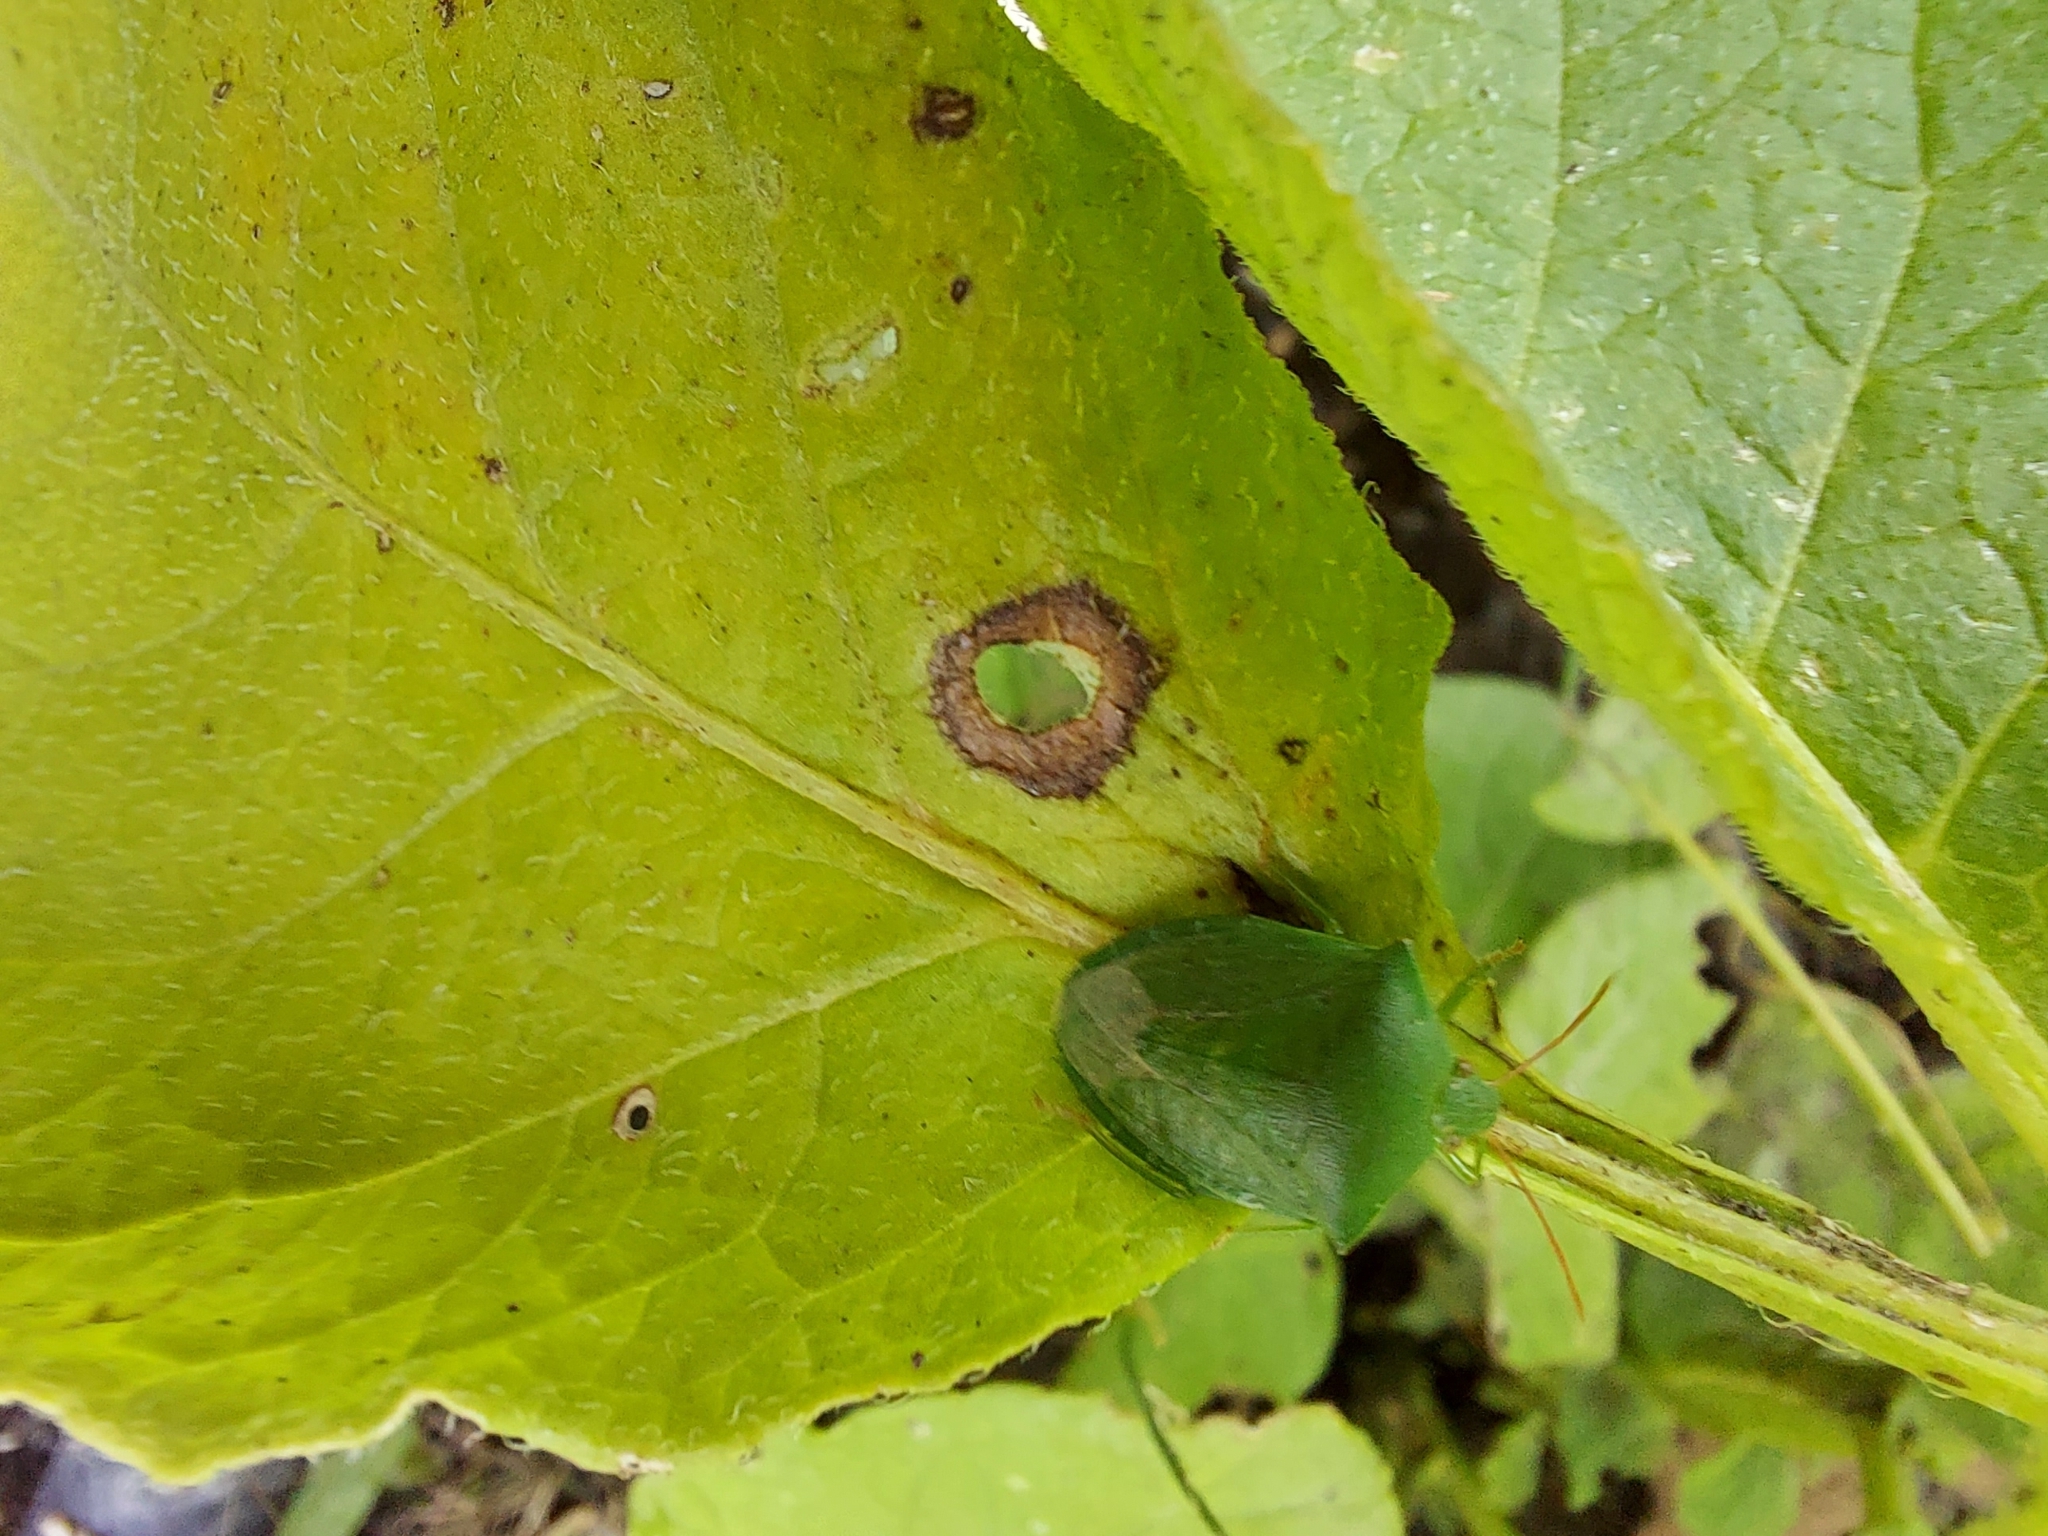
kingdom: Animalia
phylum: Arthropoda
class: Insecta
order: Hemiptera
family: Pentatomidae
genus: Cuspicona
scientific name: Cuspicona simplex
